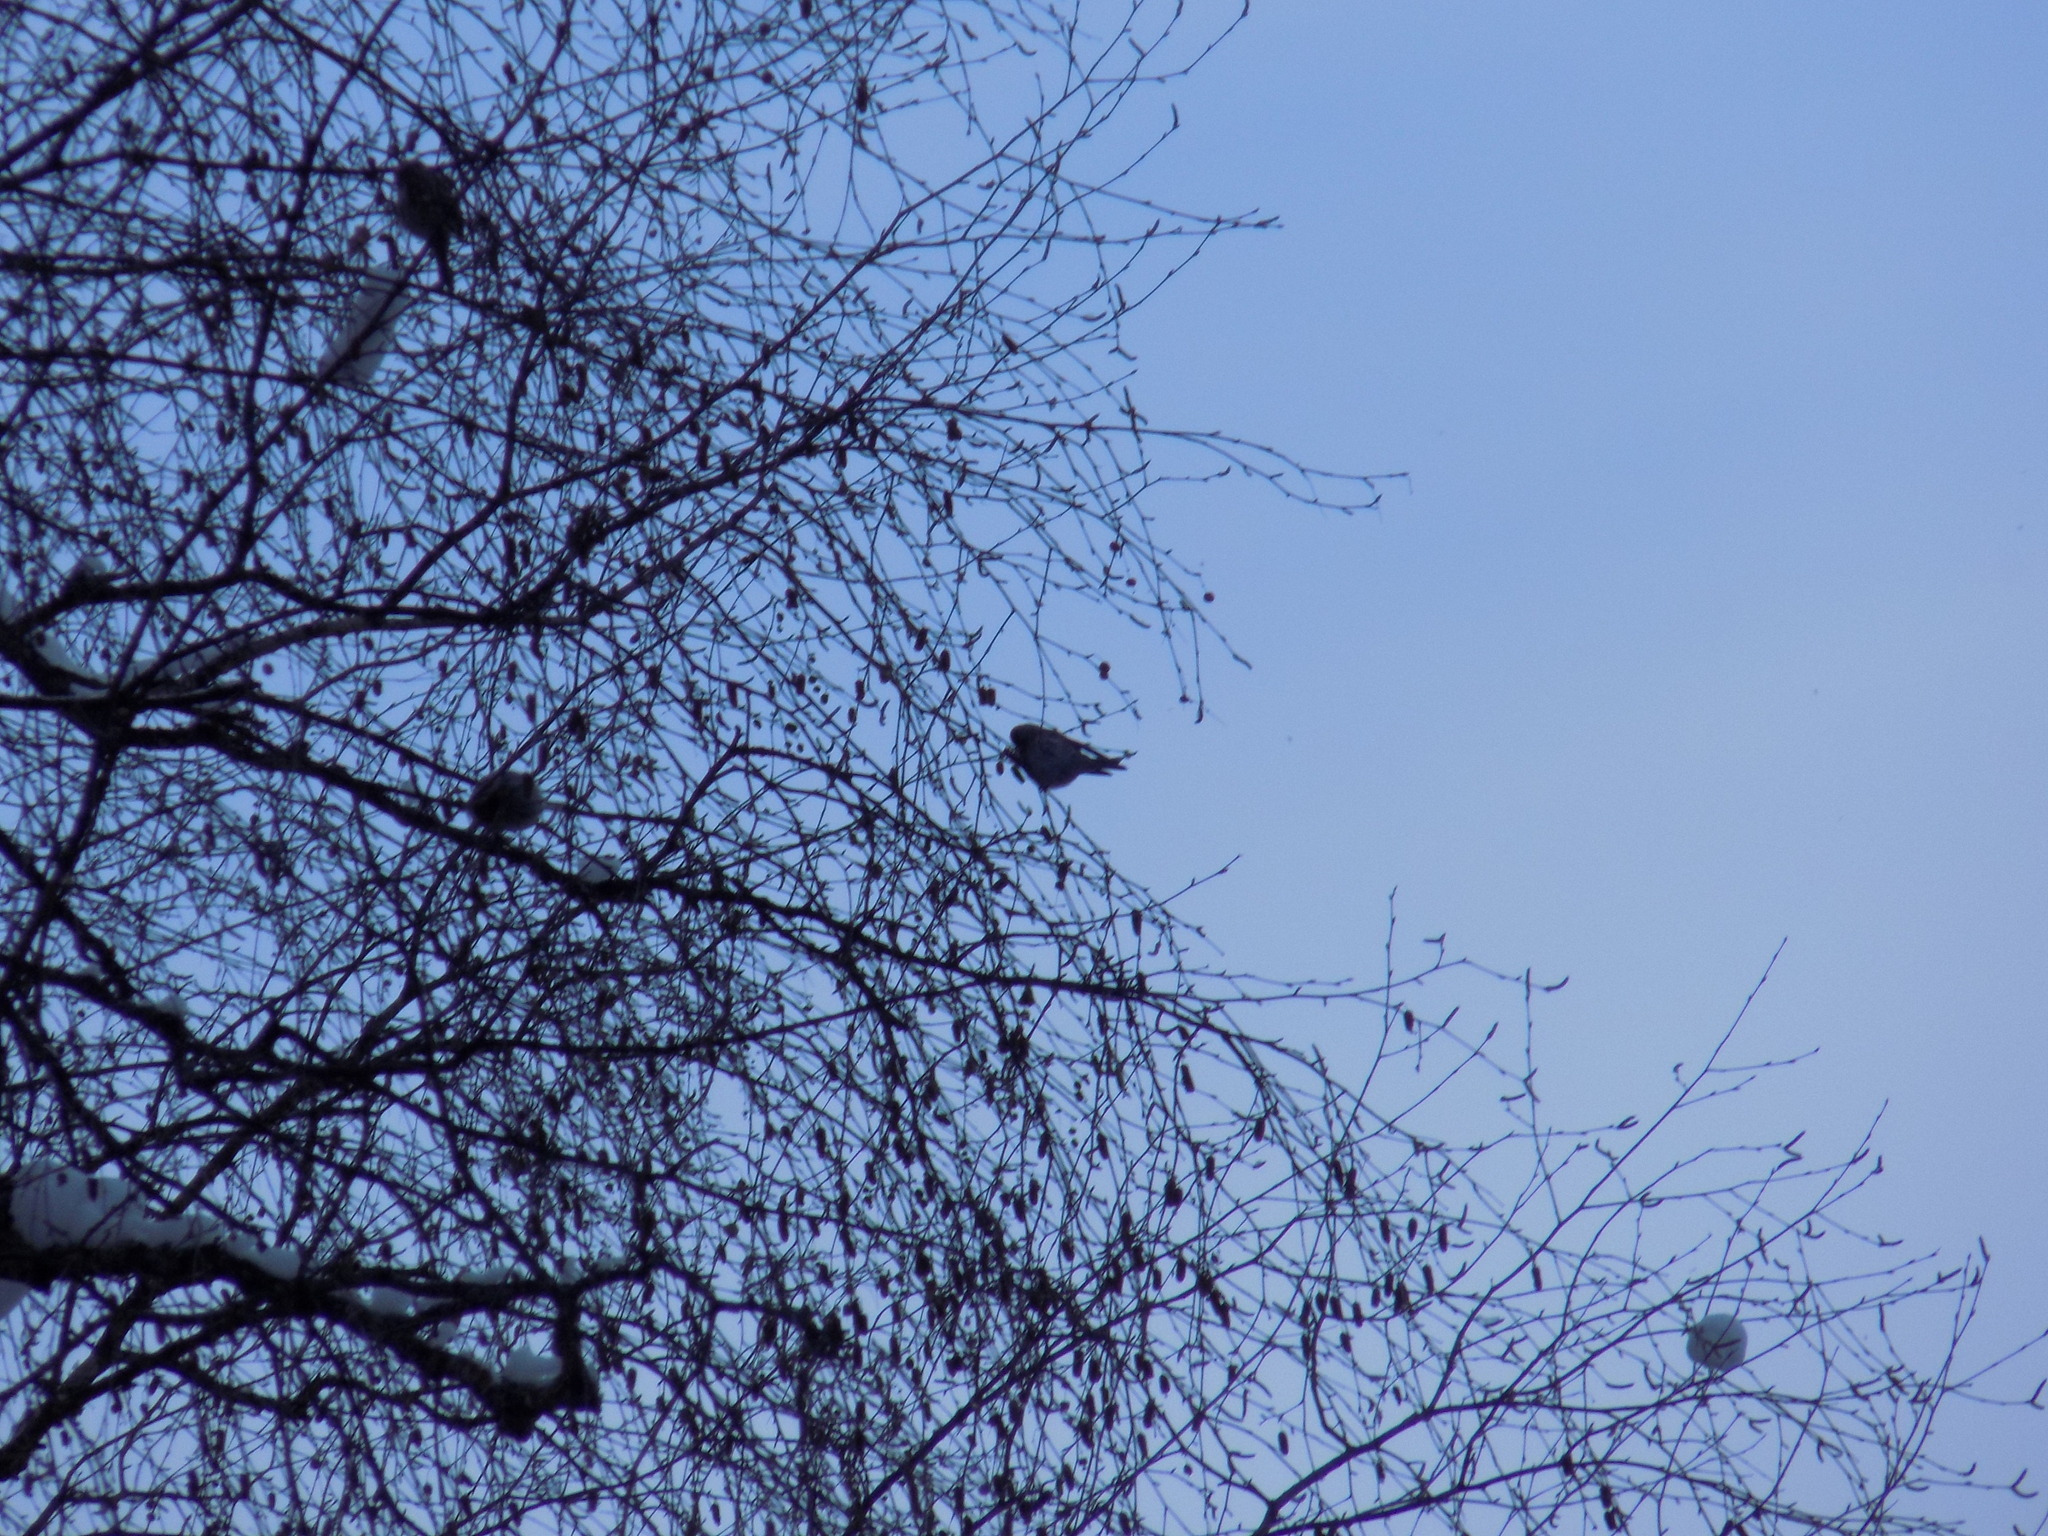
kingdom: Animalia
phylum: Chordata
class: Aves
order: Passeriformes
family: Fringillidae
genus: Acanthis
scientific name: Acanthis flammea
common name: Common redpoll
